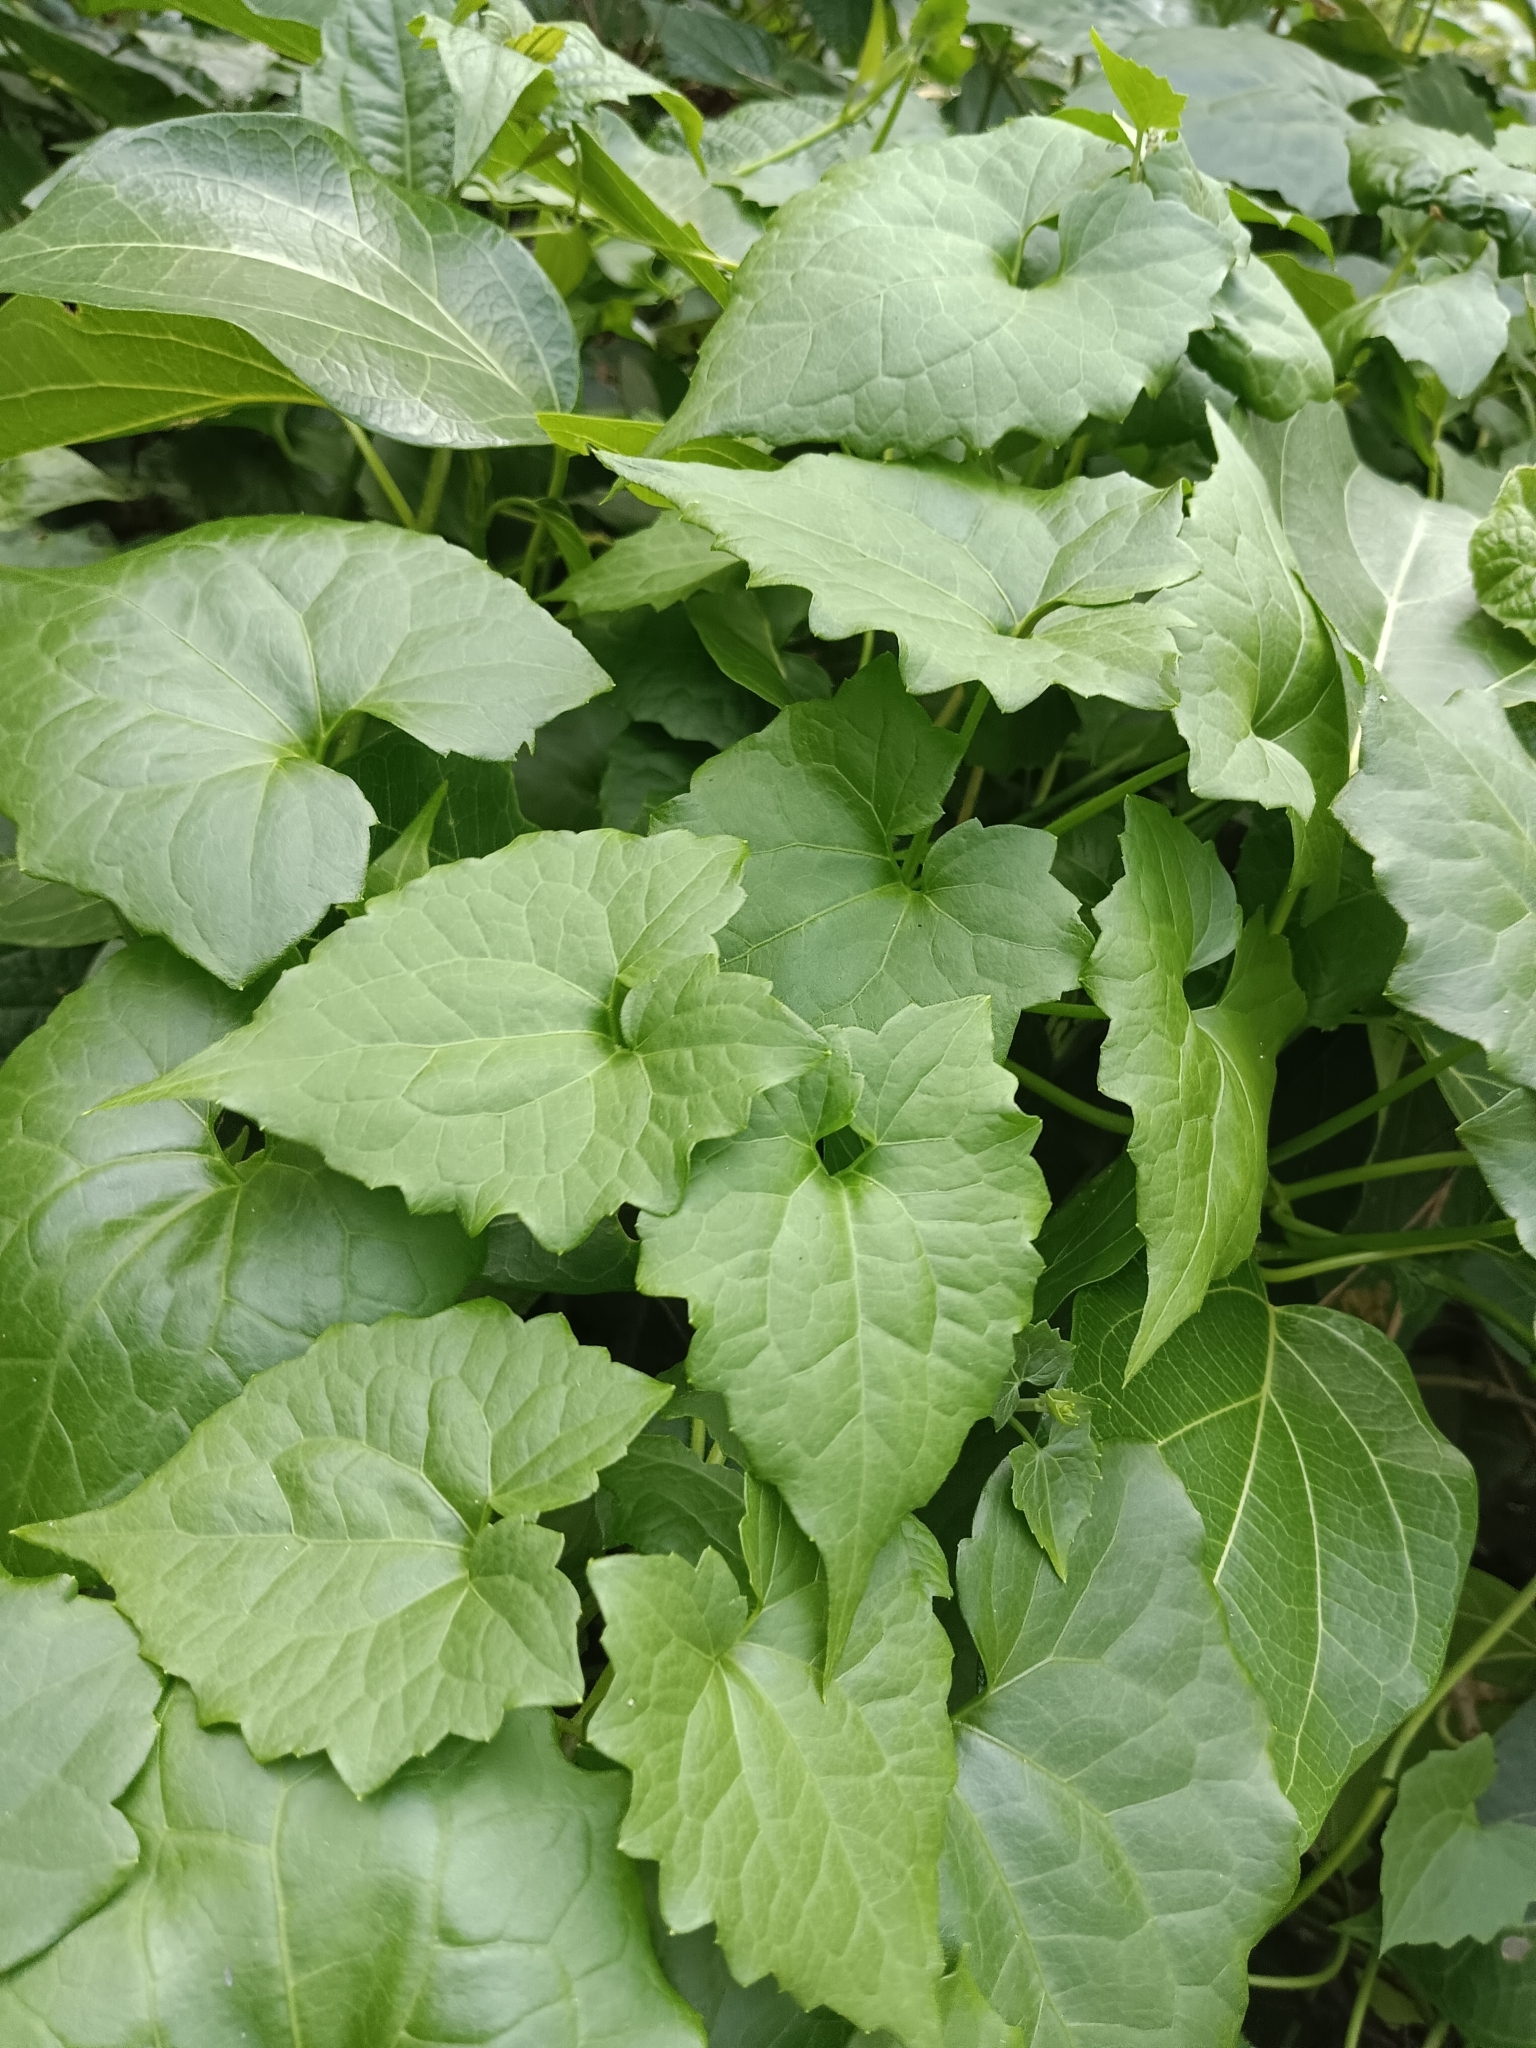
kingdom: Plantae
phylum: Tracheophyta
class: Magnoliopsida
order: Asterales
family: Asteraceae
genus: Mikania
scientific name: Mikania micrantha
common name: Mile-a-minute
